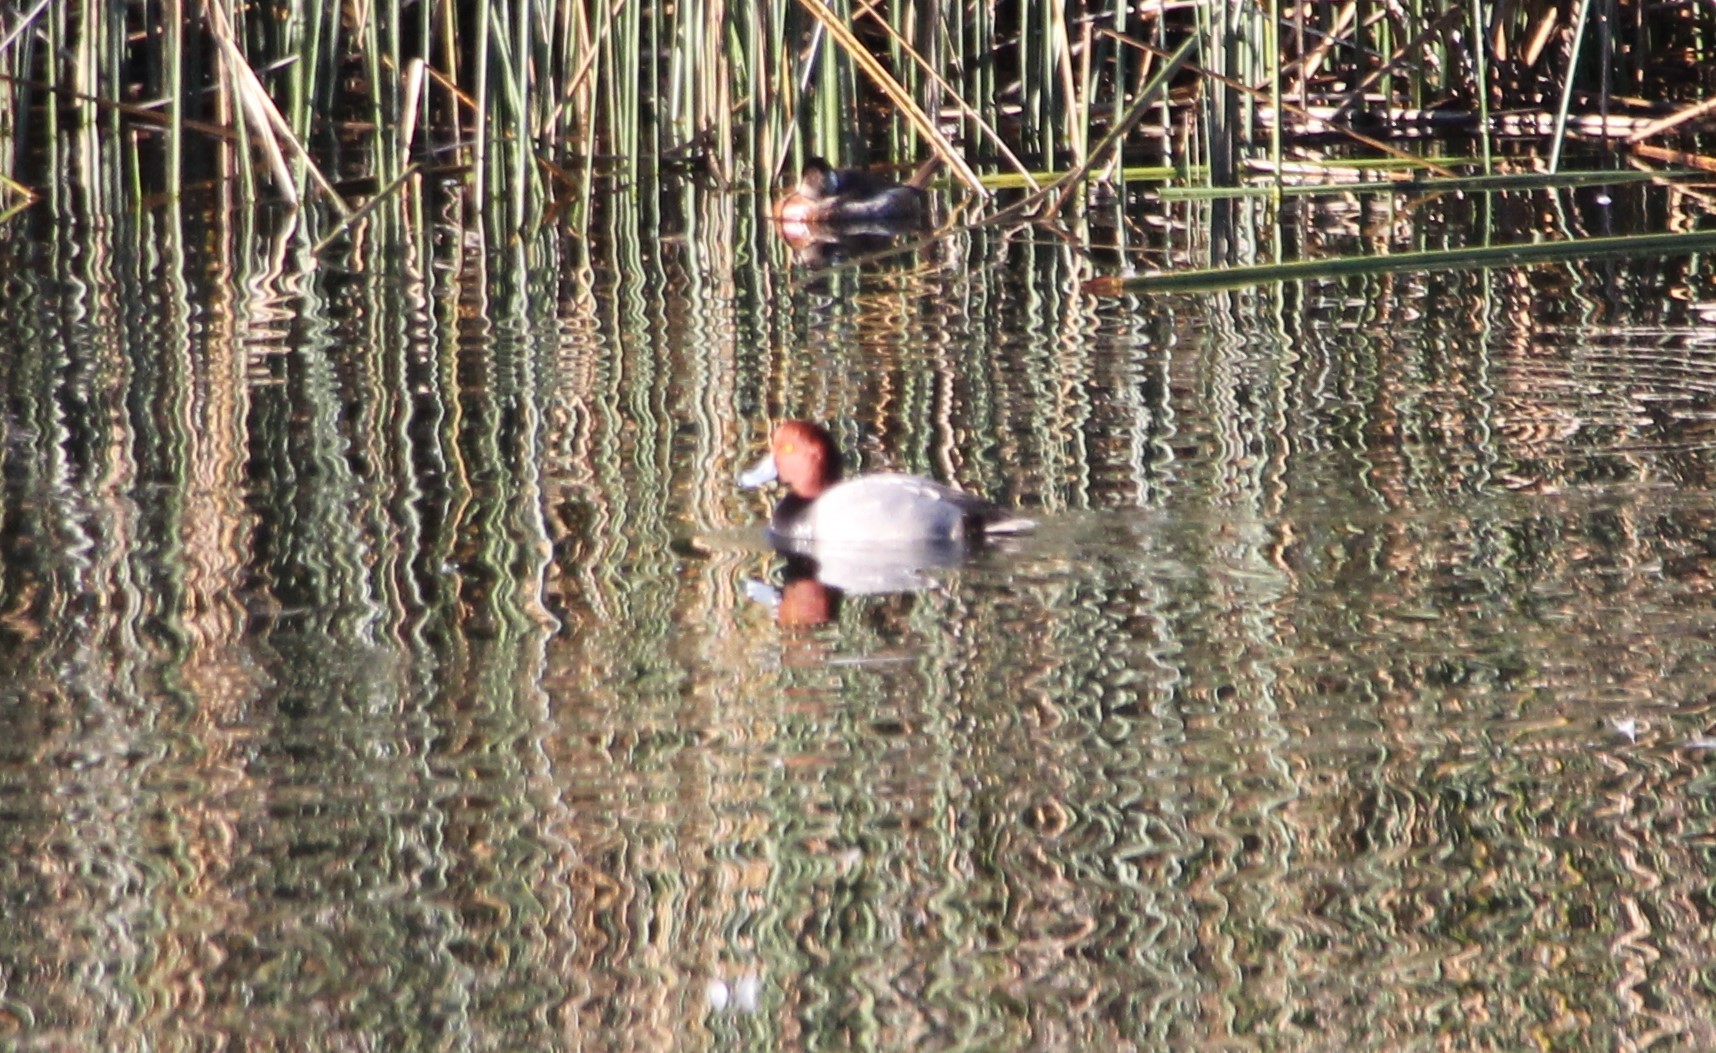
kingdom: Animalia
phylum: Chordata
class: Aves
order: Anseriformes
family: Anatidae
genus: Aythya
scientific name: Aythya americana
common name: Redhead
